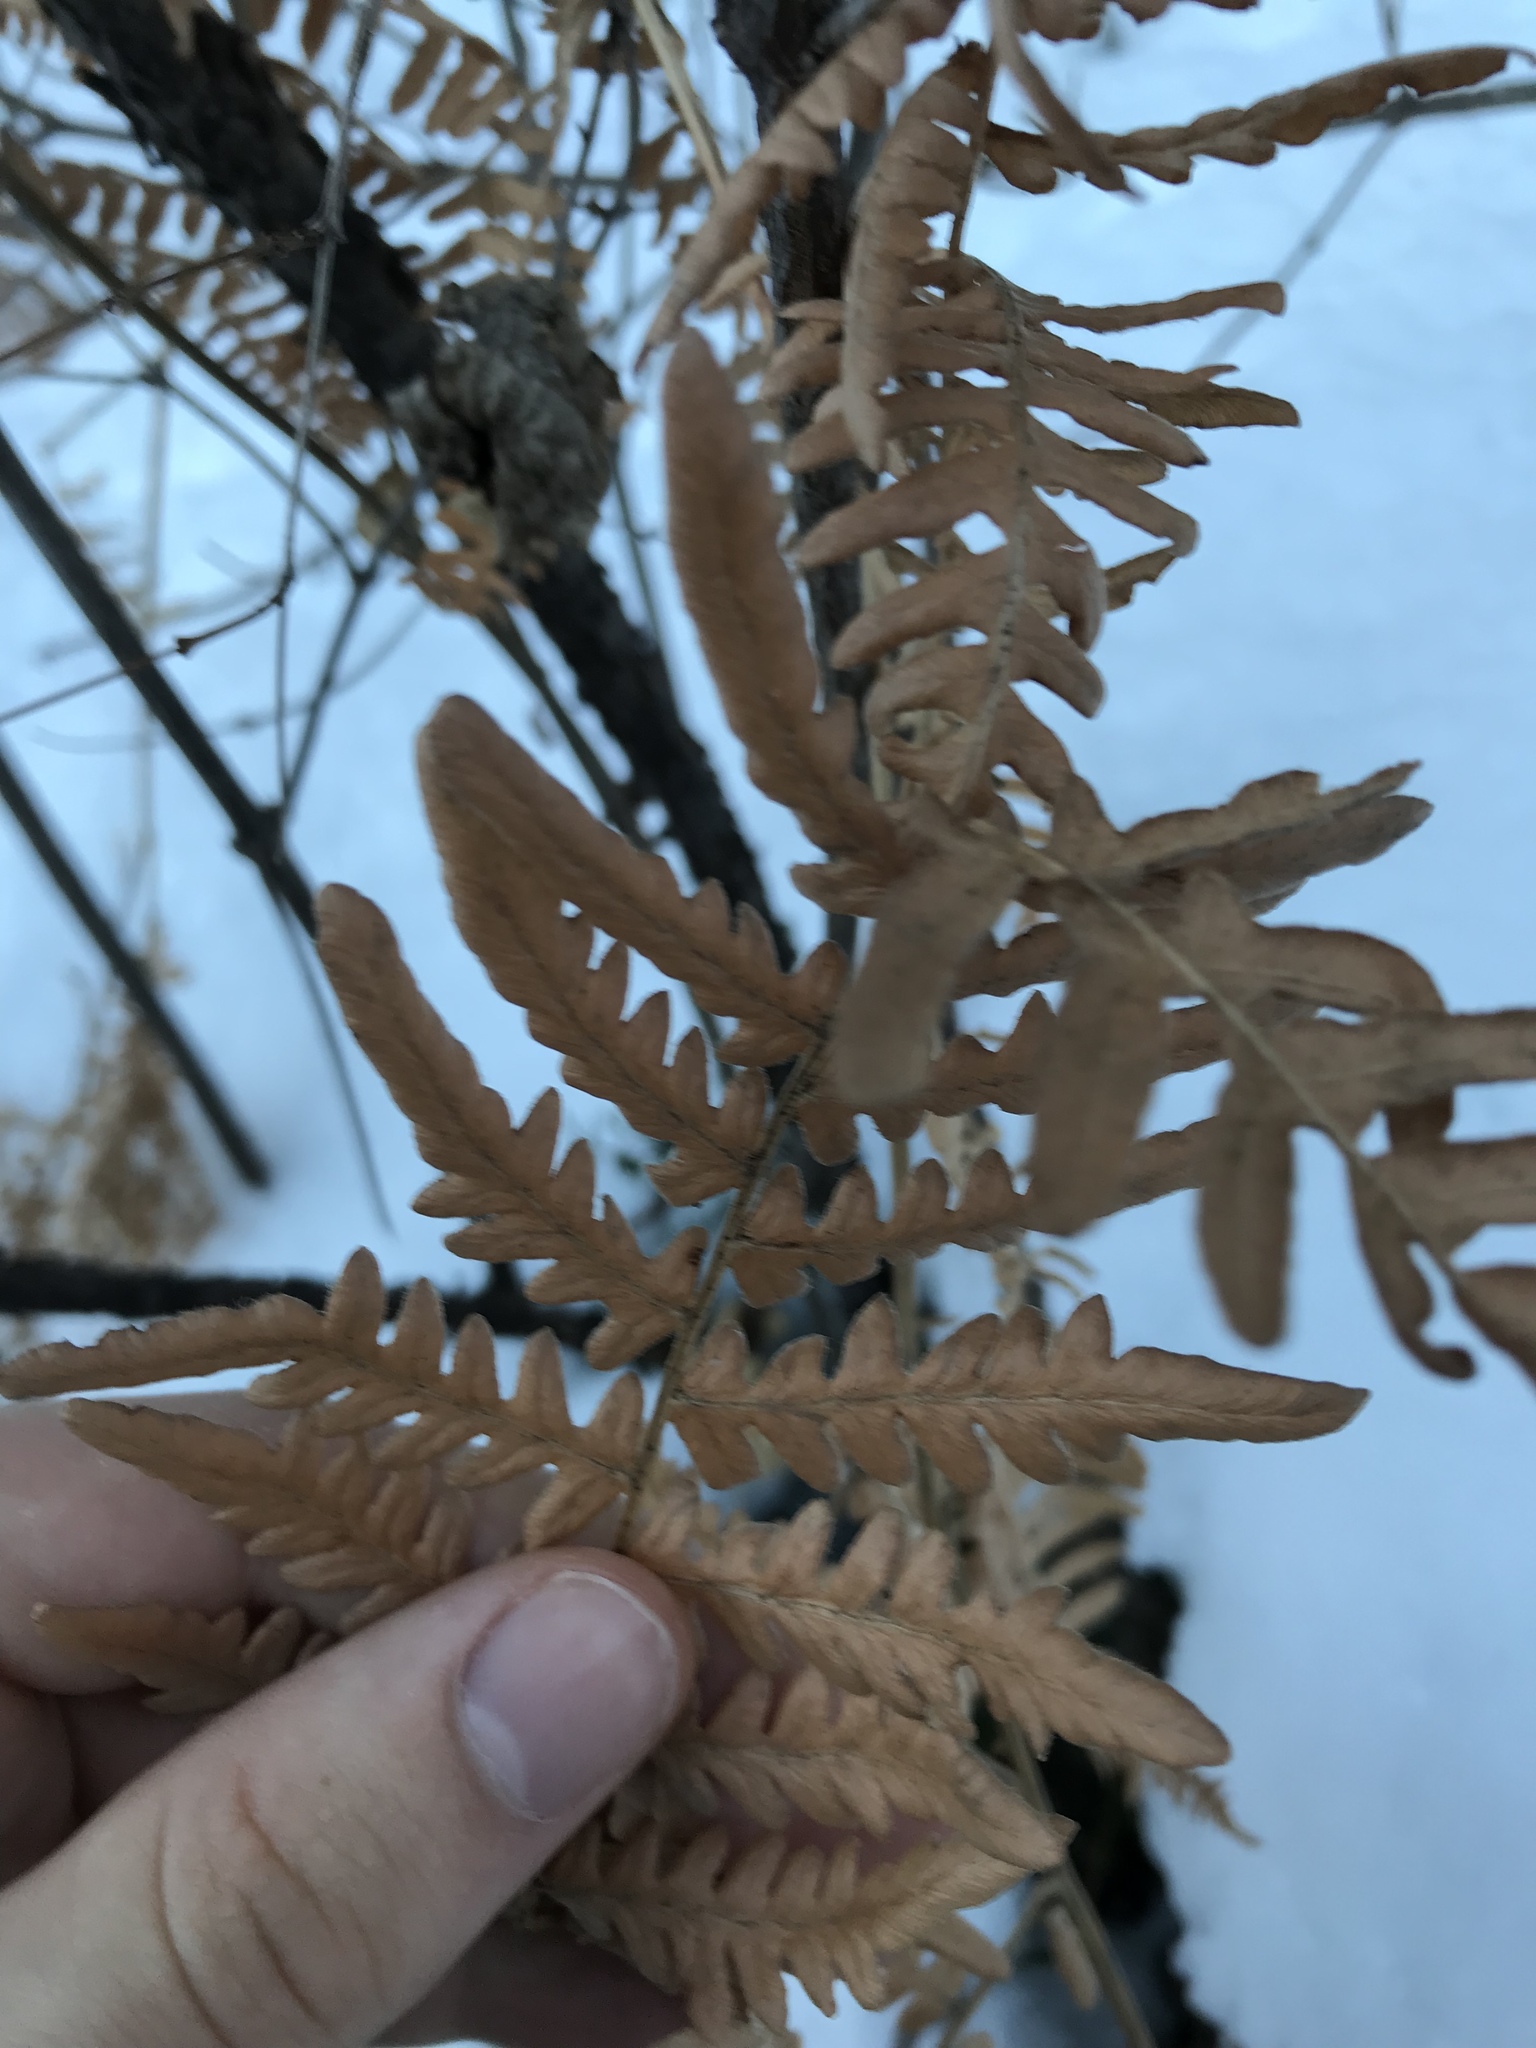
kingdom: Plantae
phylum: Tracheophyta
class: Polypodiopsida
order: Polypodiales
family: Dennstaedtiaceae
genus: Pteridium
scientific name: Pteridium aquilinum
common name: Bracken
